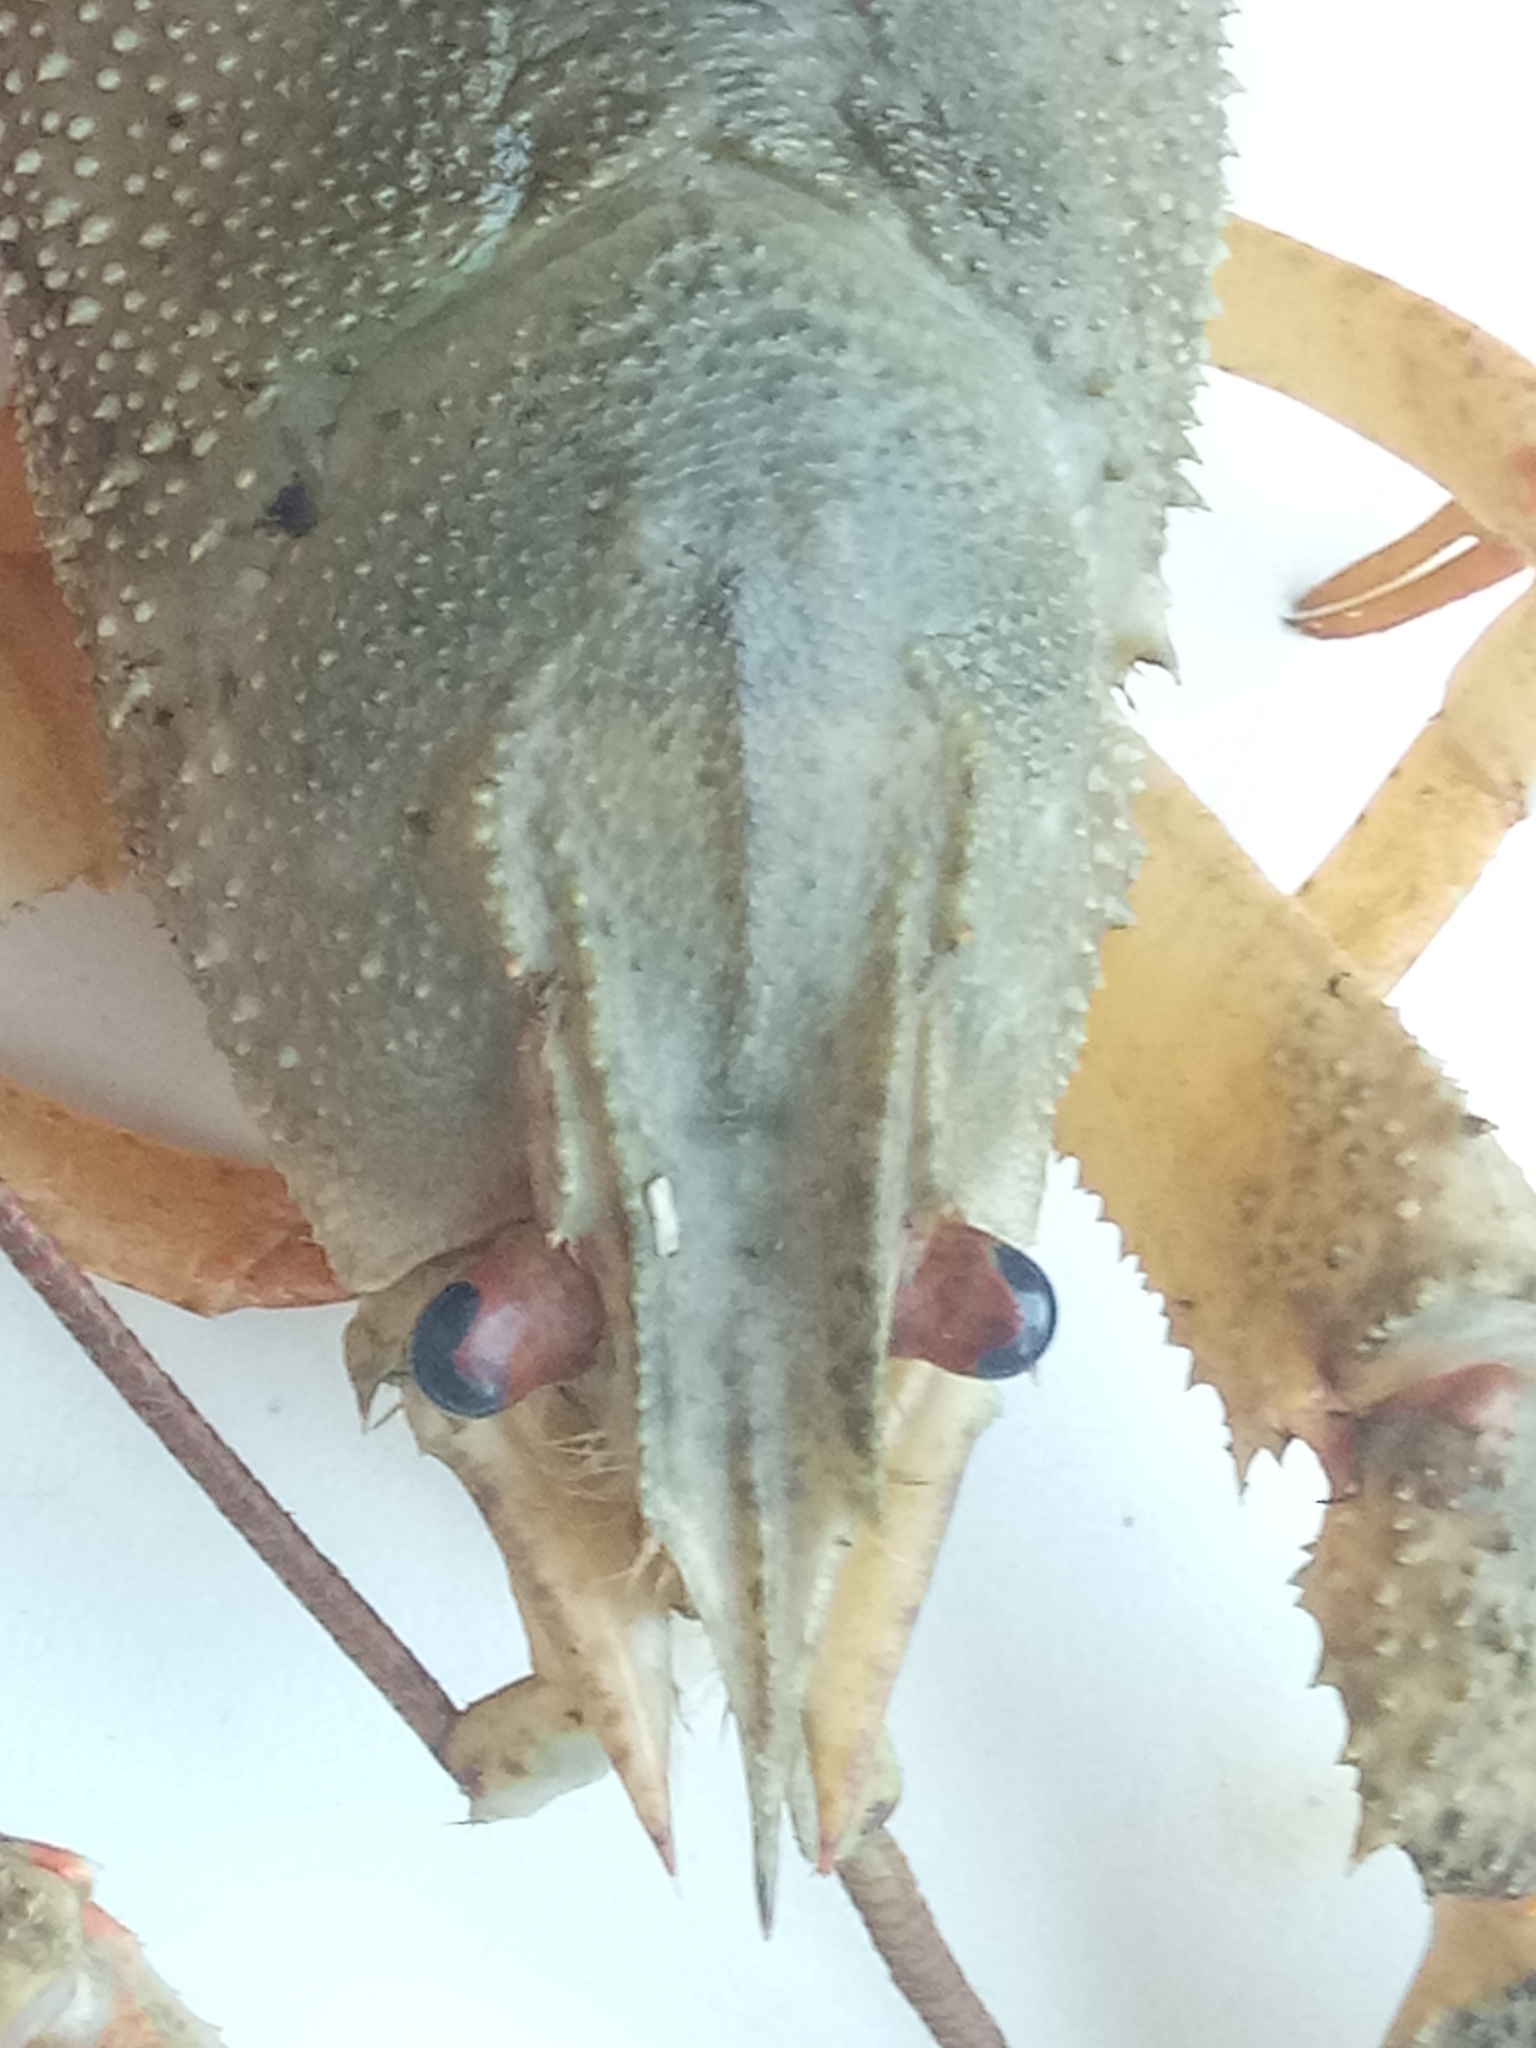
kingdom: Animalia
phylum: Arthropoda
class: Malacostraca
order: Decapoda
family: Astacidae
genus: Pontastacus
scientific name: Pontastacus leptodactylus
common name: Danube crayfish
